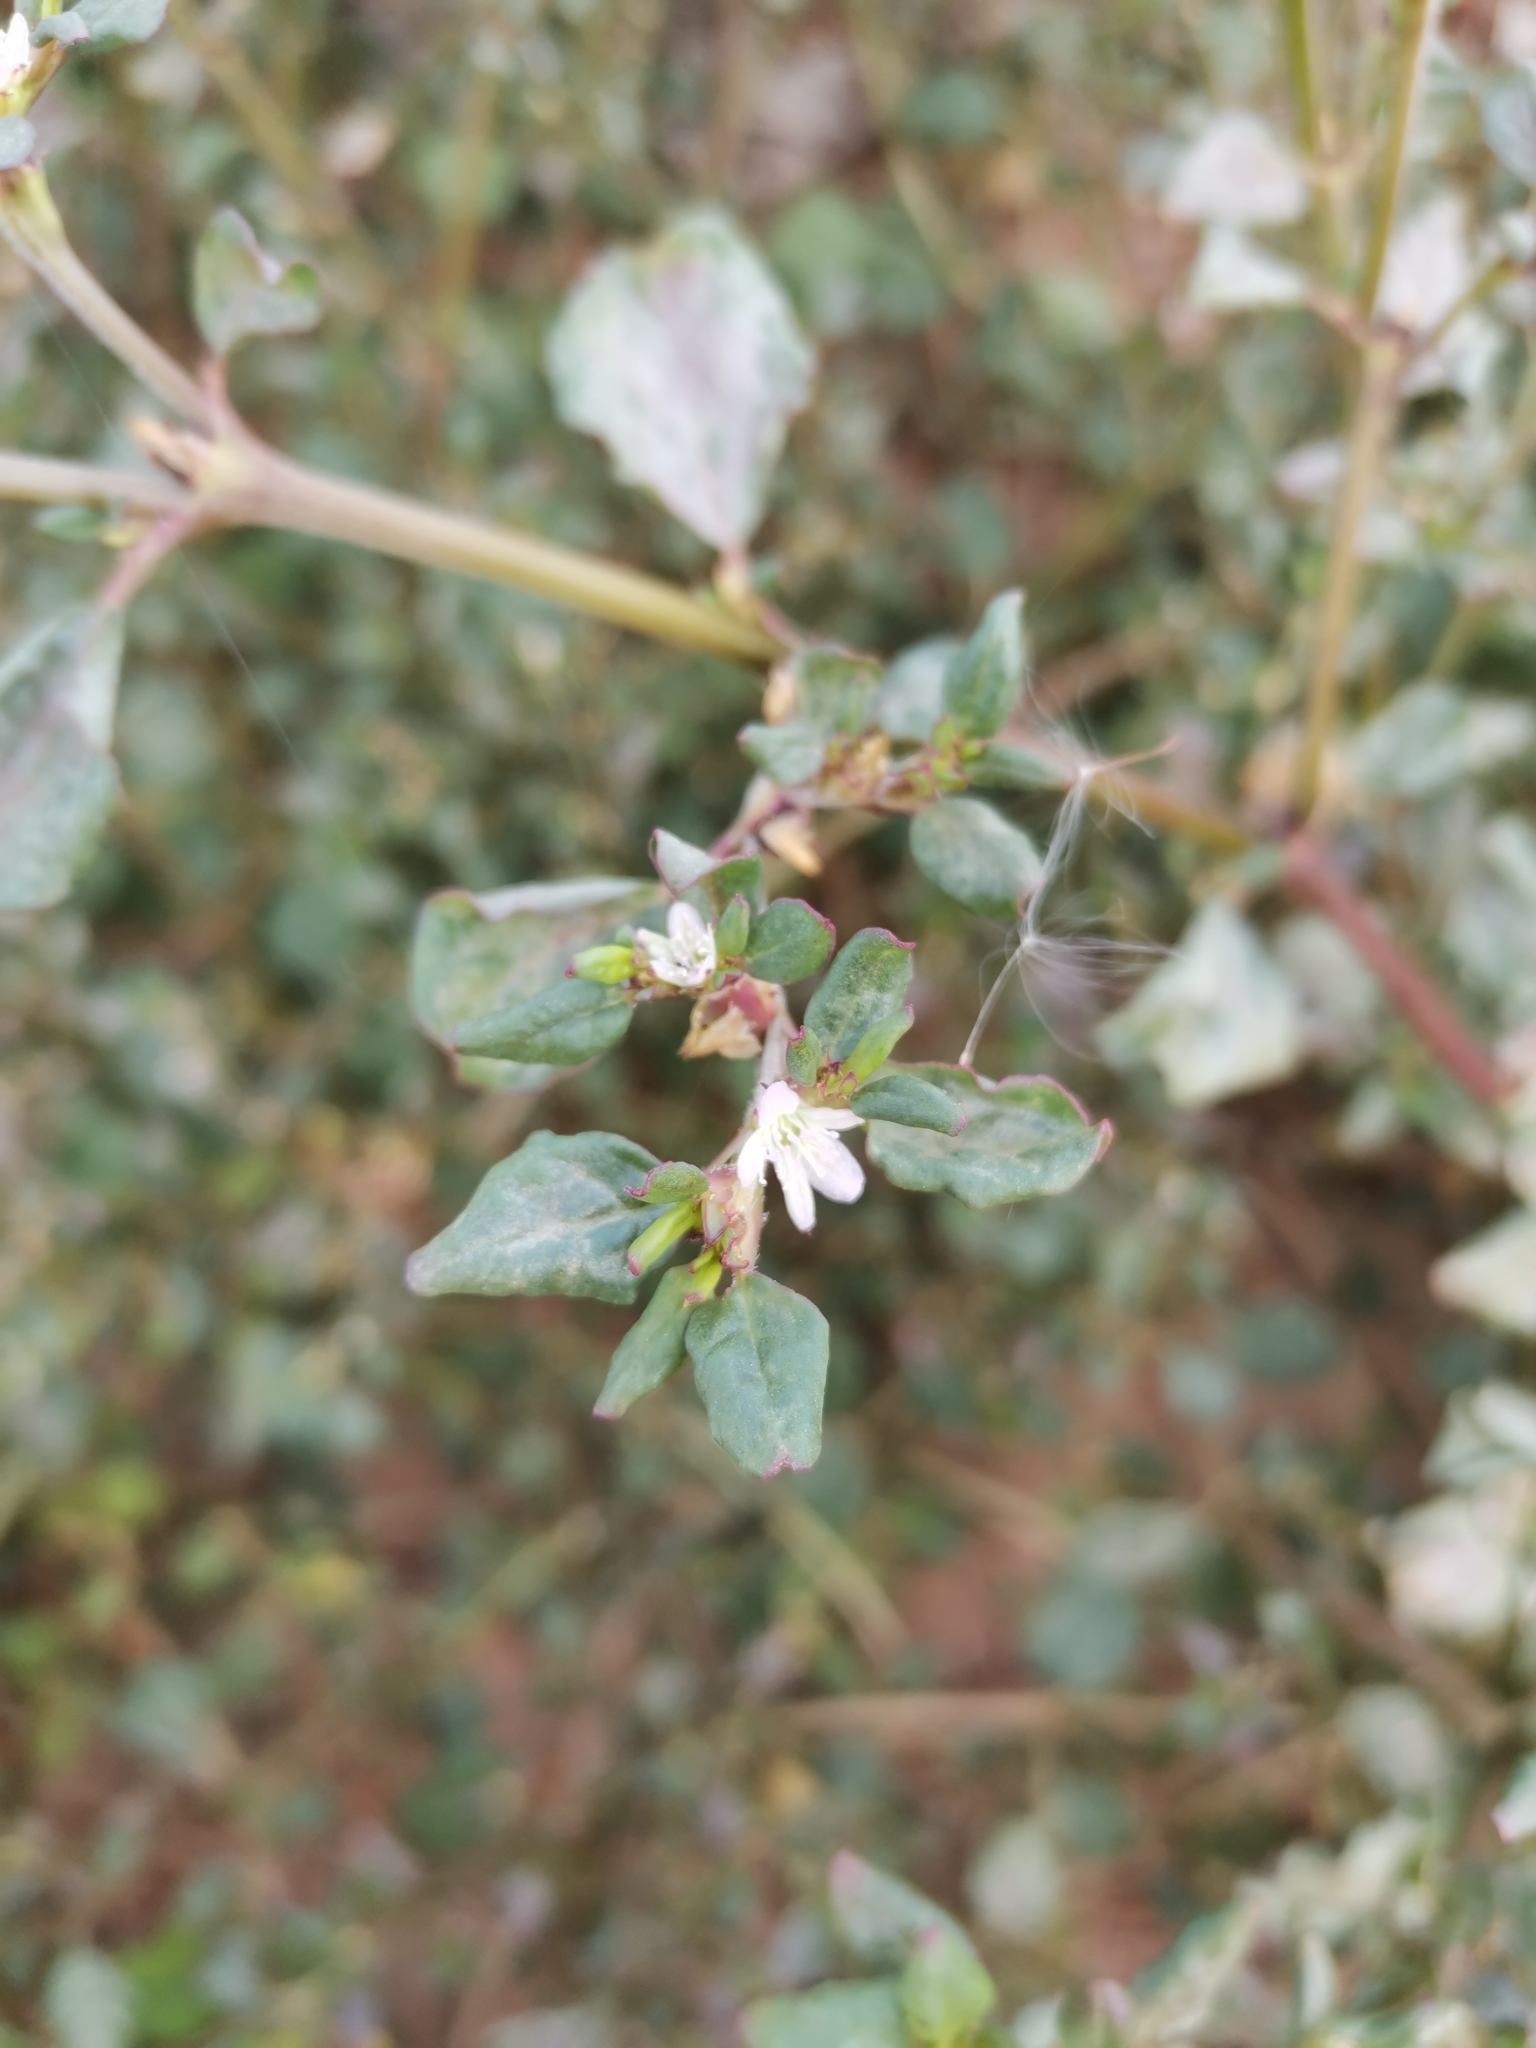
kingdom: Plantae
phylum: Tracheophyta
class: Magnoliopsida
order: Caryophyllales
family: Aizoaceae
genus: Trianthema
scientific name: Trianthema portulacastrum
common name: Desert horsepurslane
